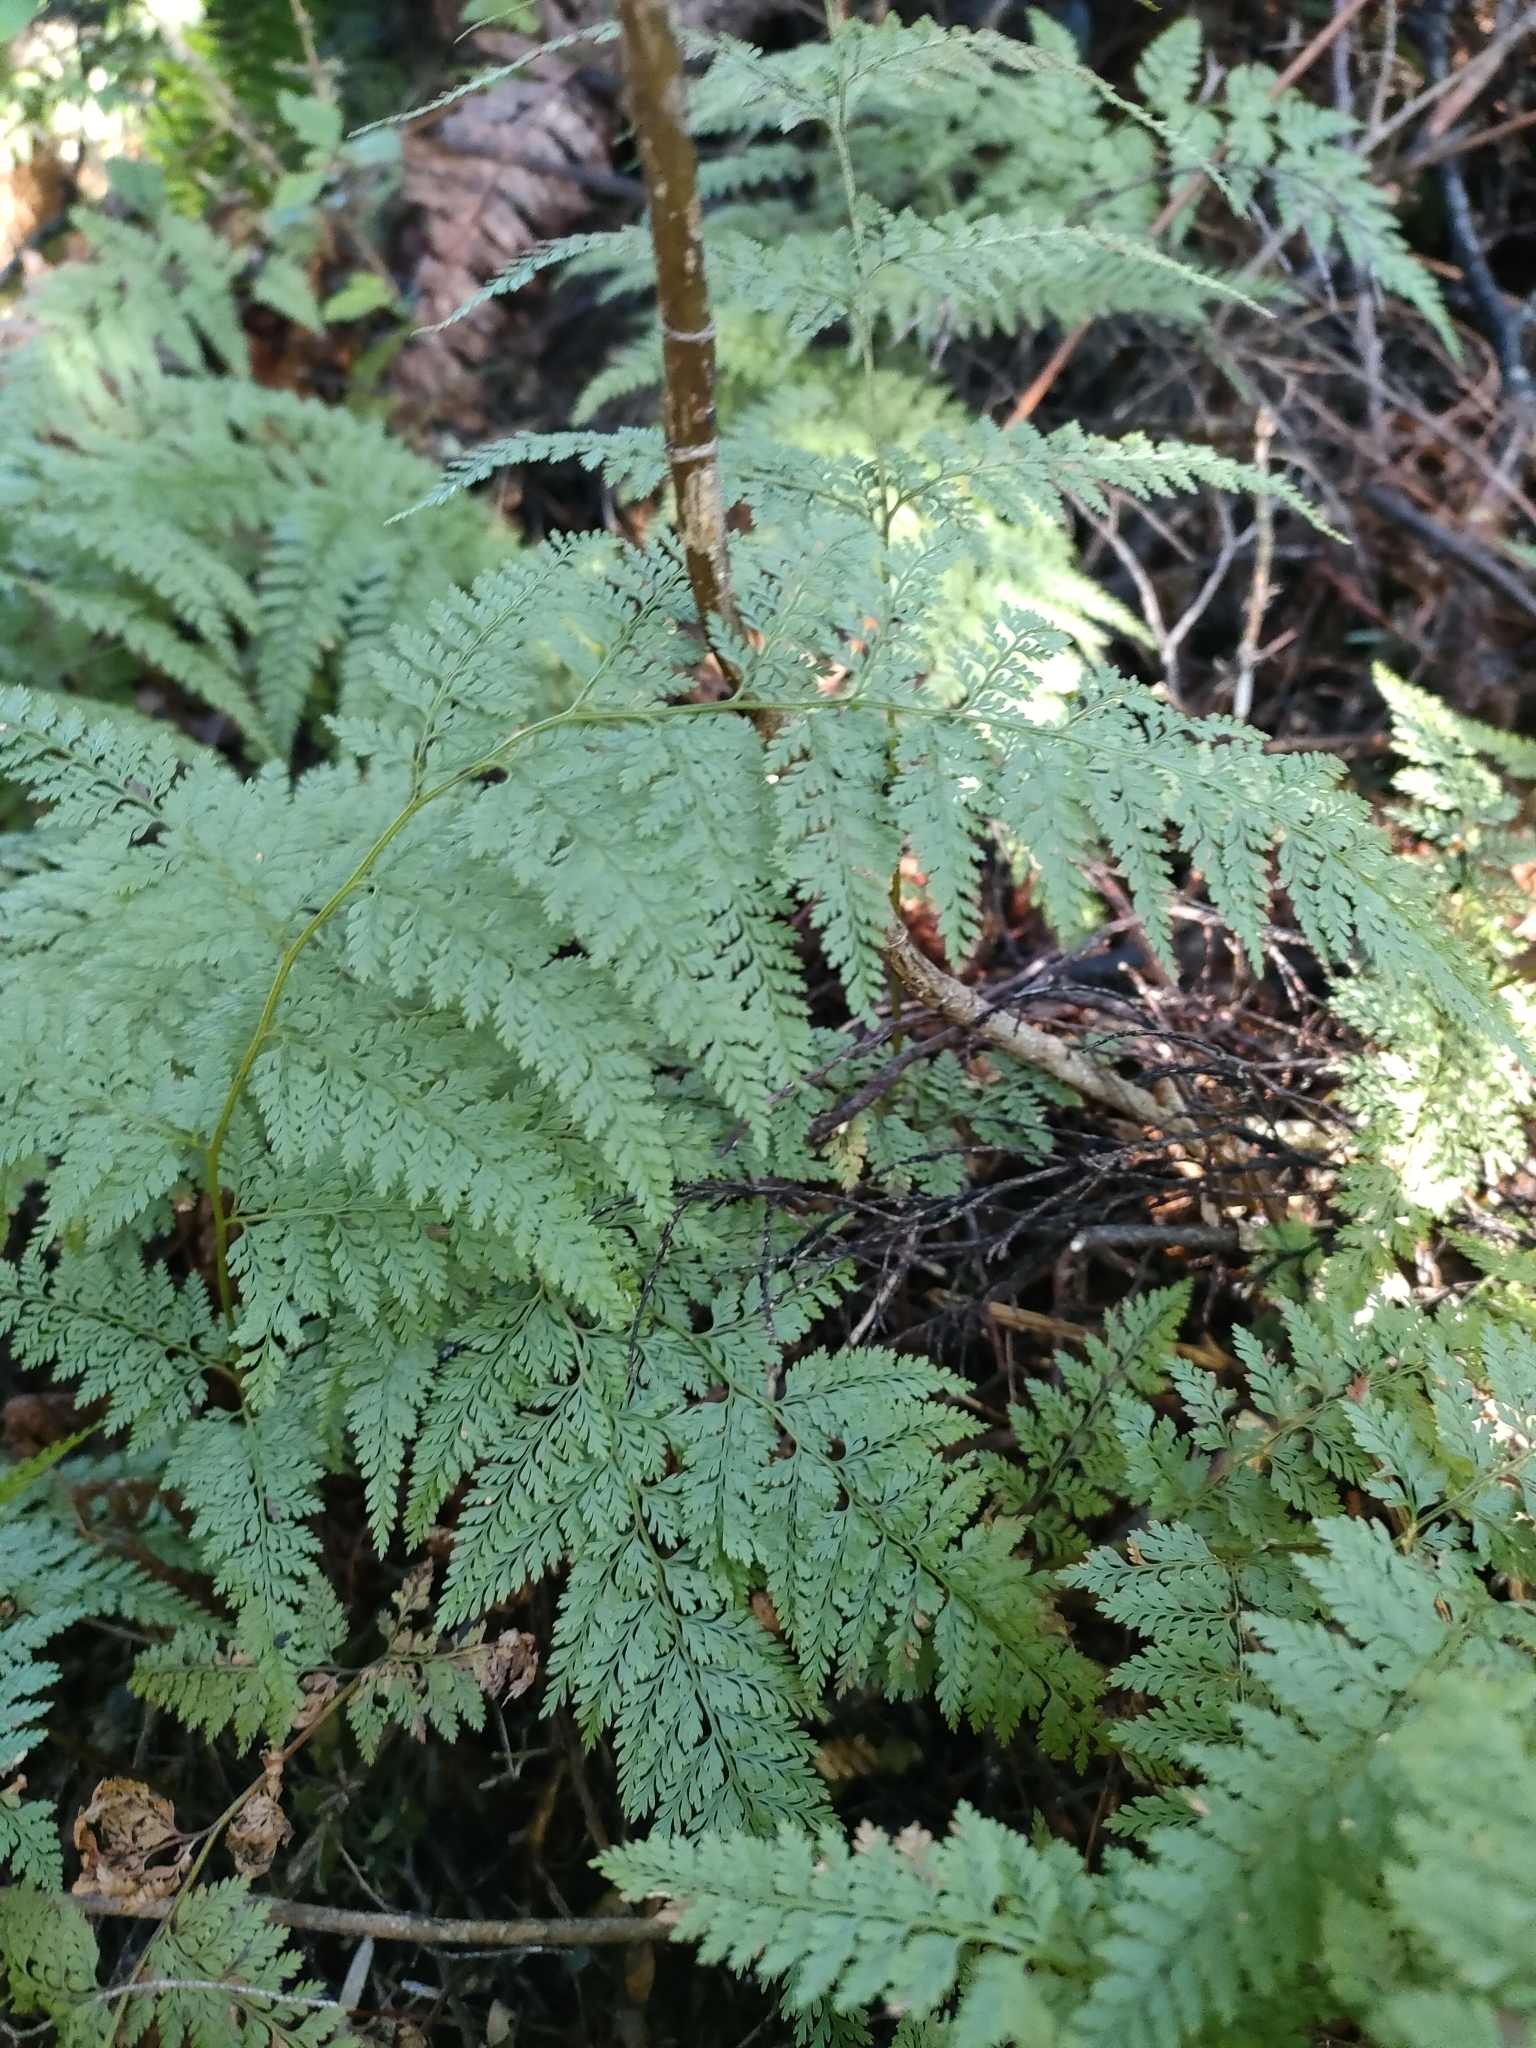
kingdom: Plantae
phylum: Tracheophyta
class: Polypodiopsida
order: Polypodiales
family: Dennstaedtiaceae
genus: Paesia
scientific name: Paesia scaberula
